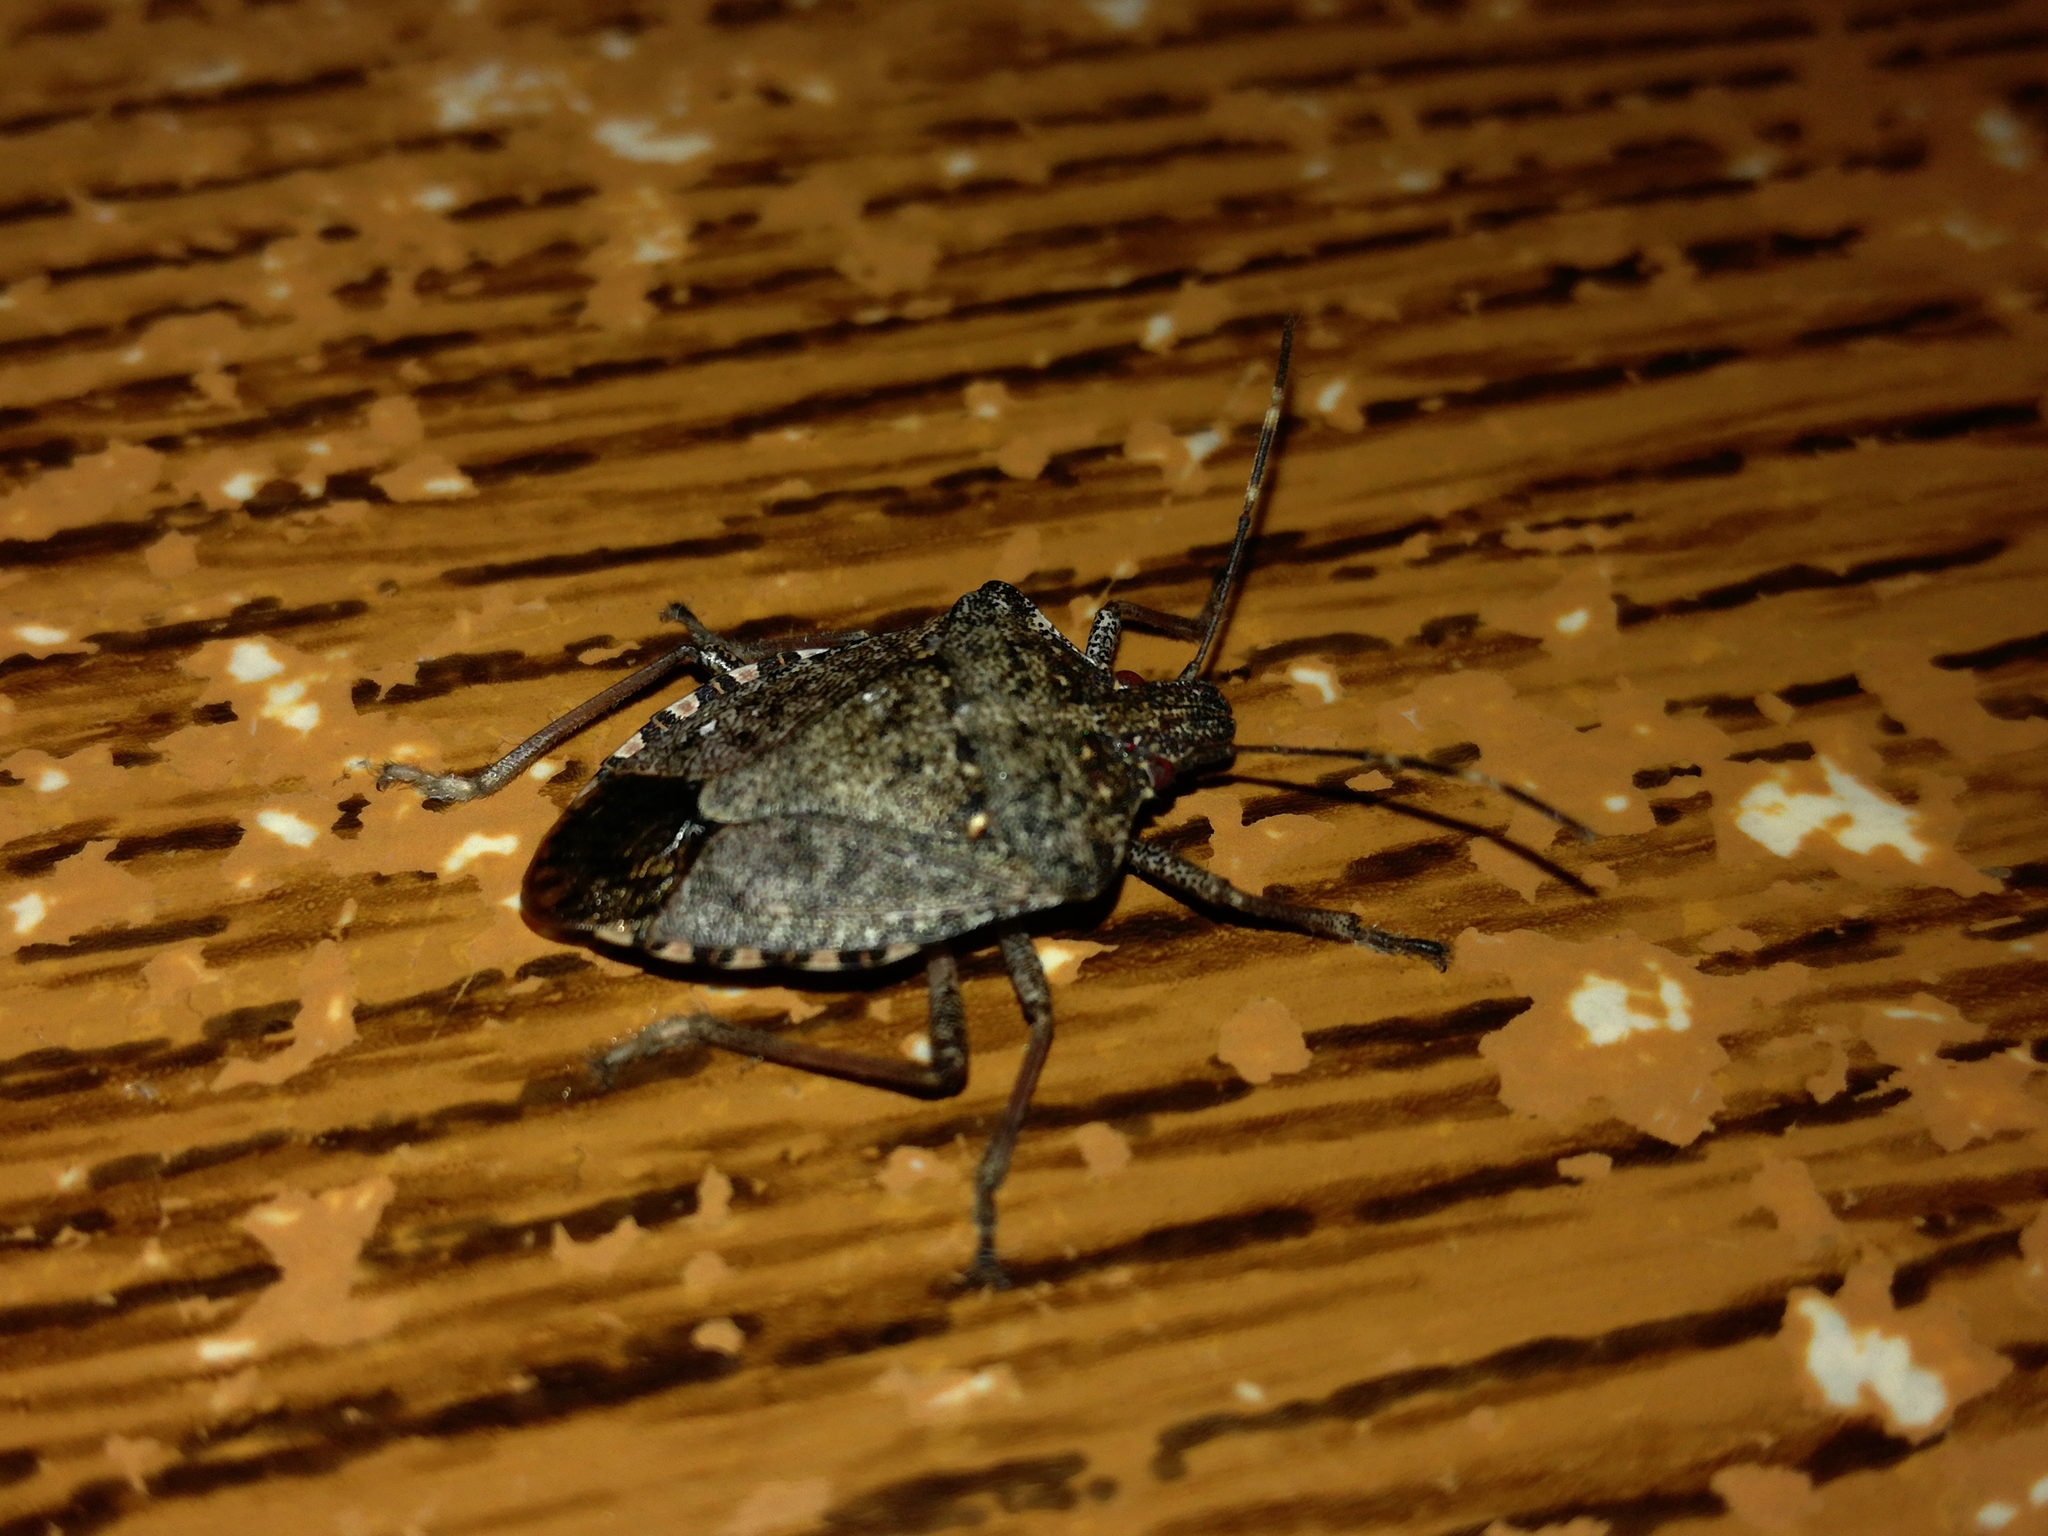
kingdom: Animalia
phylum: Arthropoda
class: Insecta
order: Hemiptera
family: Pentatomidae
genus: Halyomorpha
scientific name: Halyomorpha halys
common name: Brown marmorated stink bug
